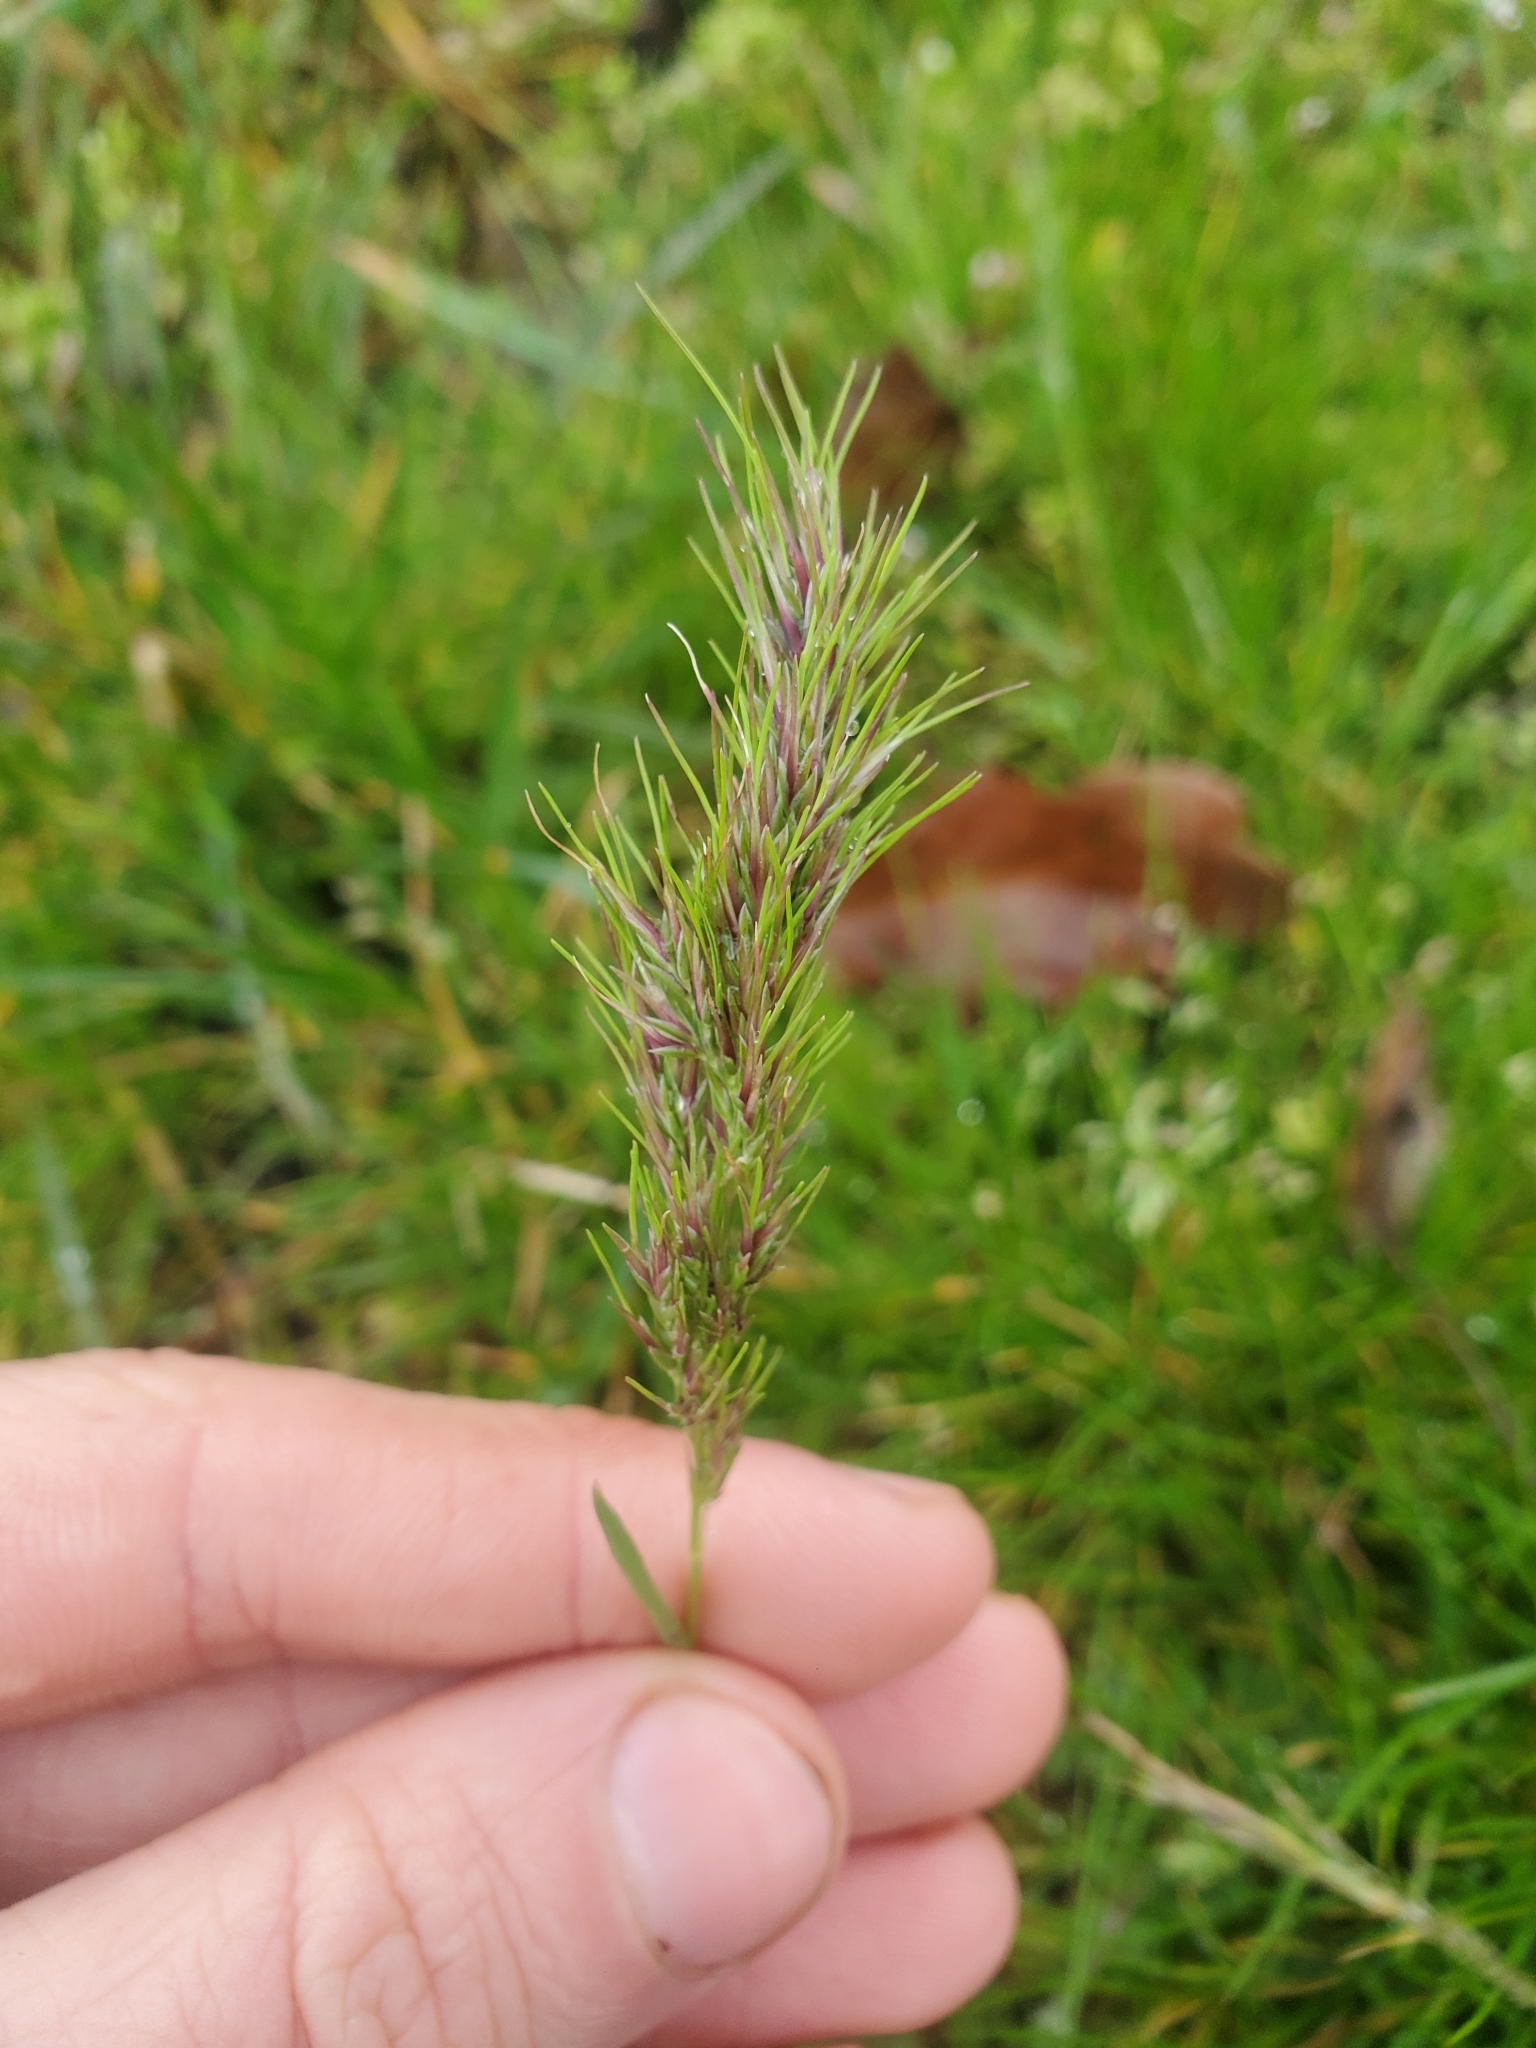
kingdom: Plantae
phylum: Tracheophyta
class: Liliopsida
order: Poales
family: Poaceae
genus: Poa
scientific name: Poa bulbosa
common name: Bulbous bluegrass
